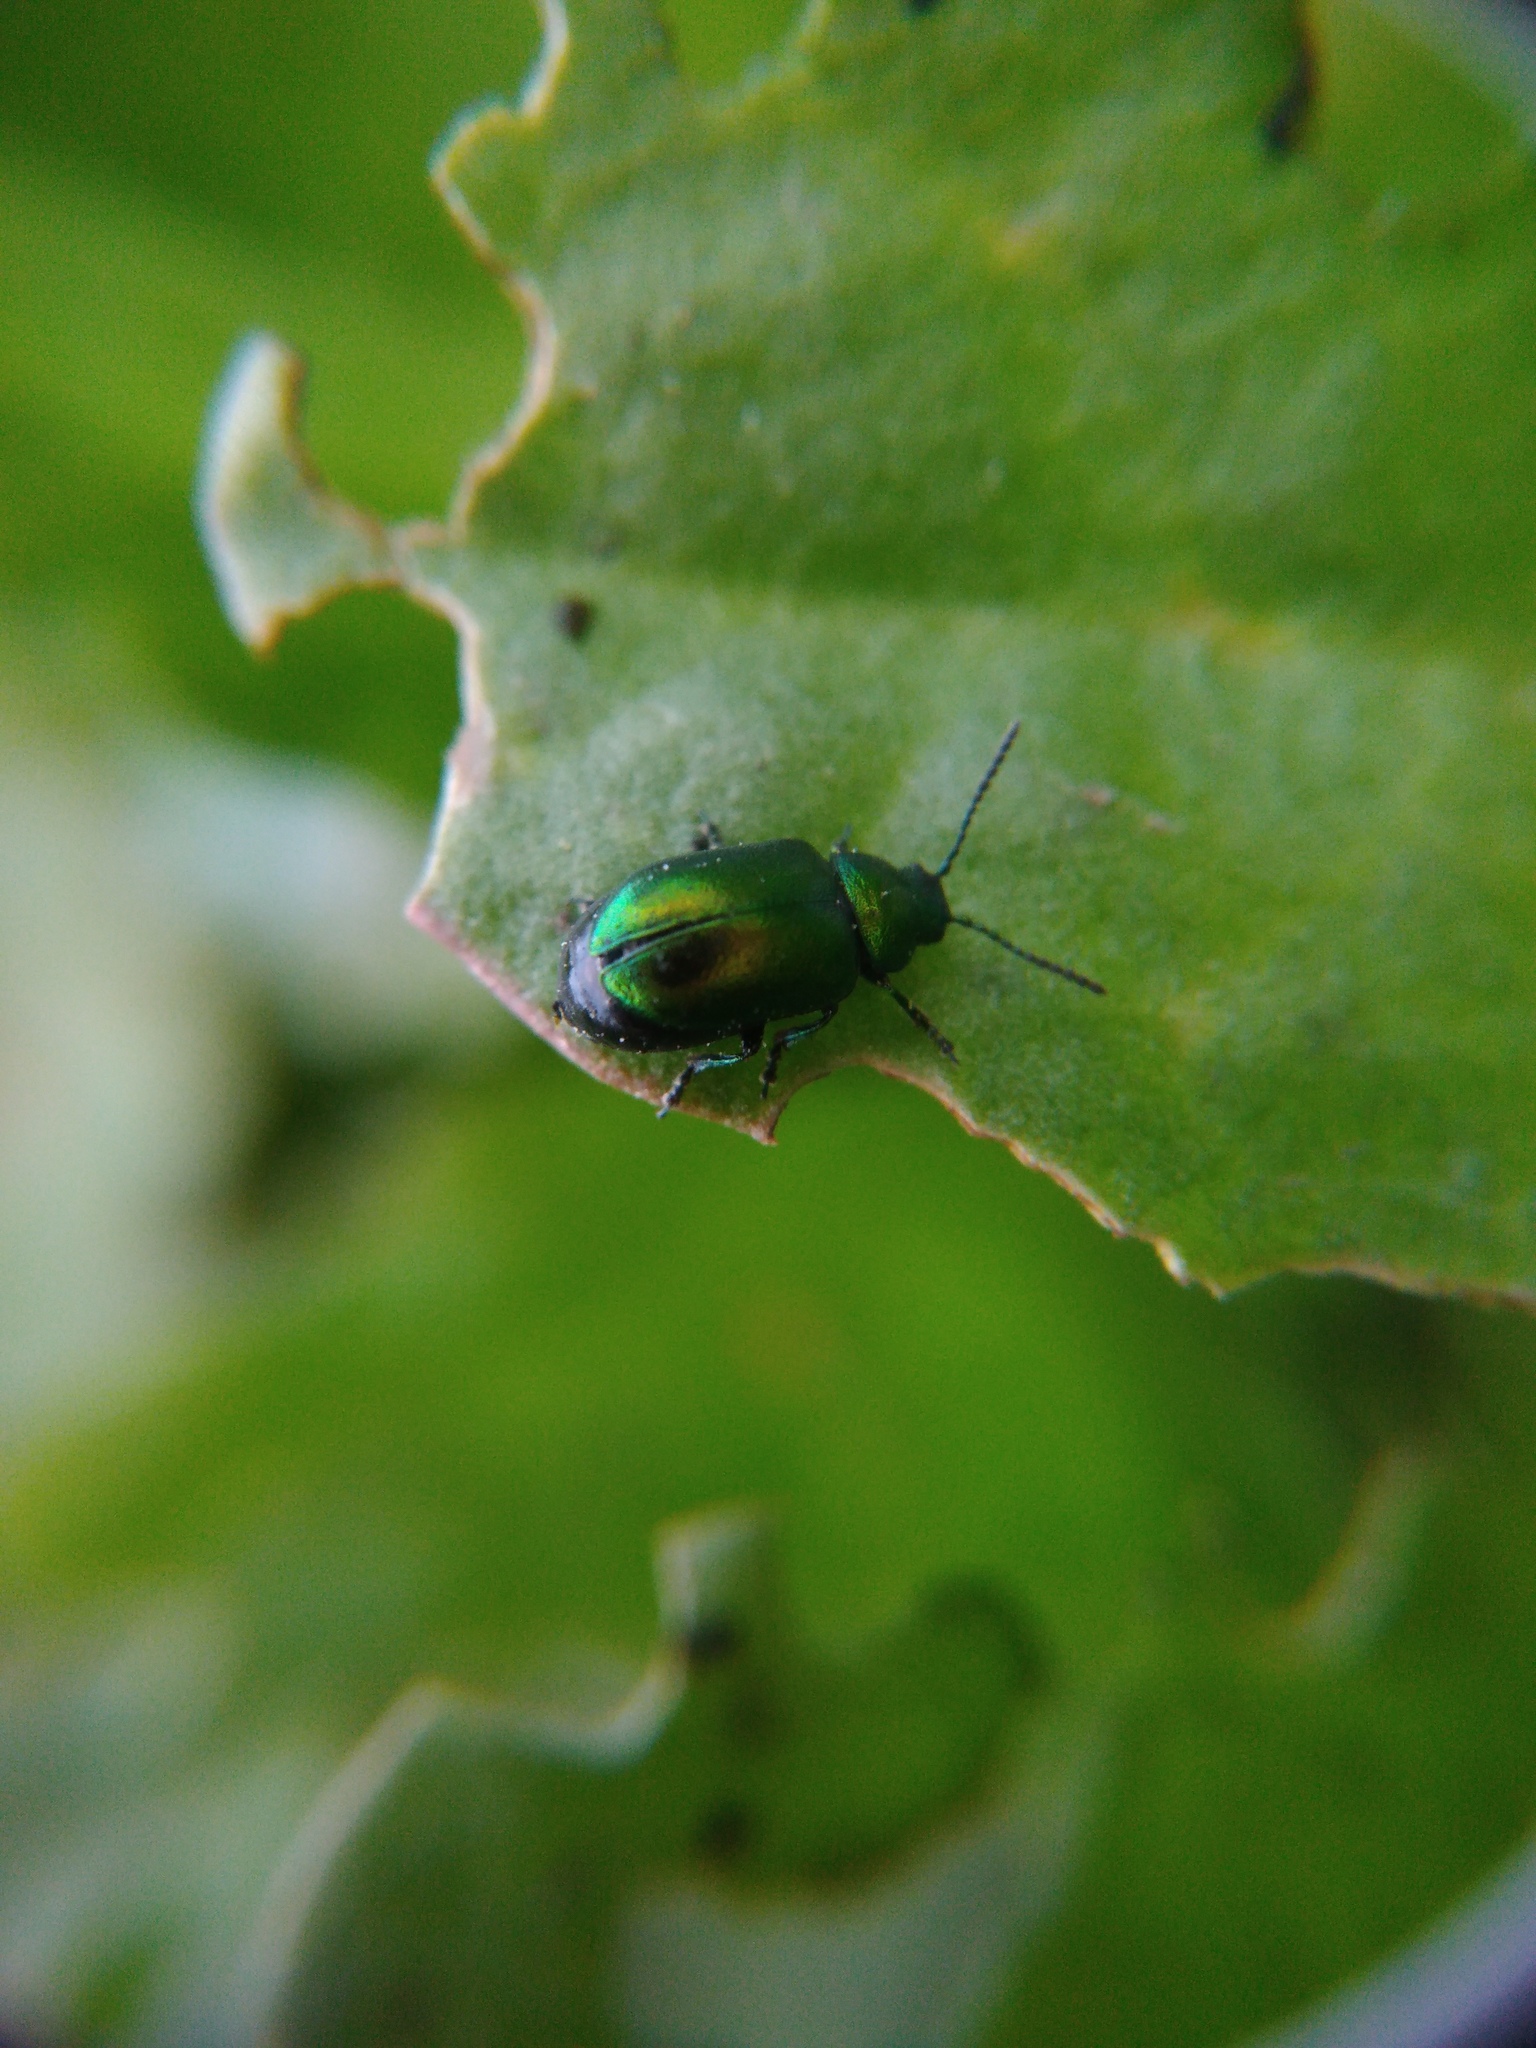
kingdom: Animalia
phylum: Arthropoda
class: Insecta
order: Coleoptera
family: Chrysomelidae
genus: Gastrophysa
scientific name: Gastrophysa viridula
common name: Green dock beetle
